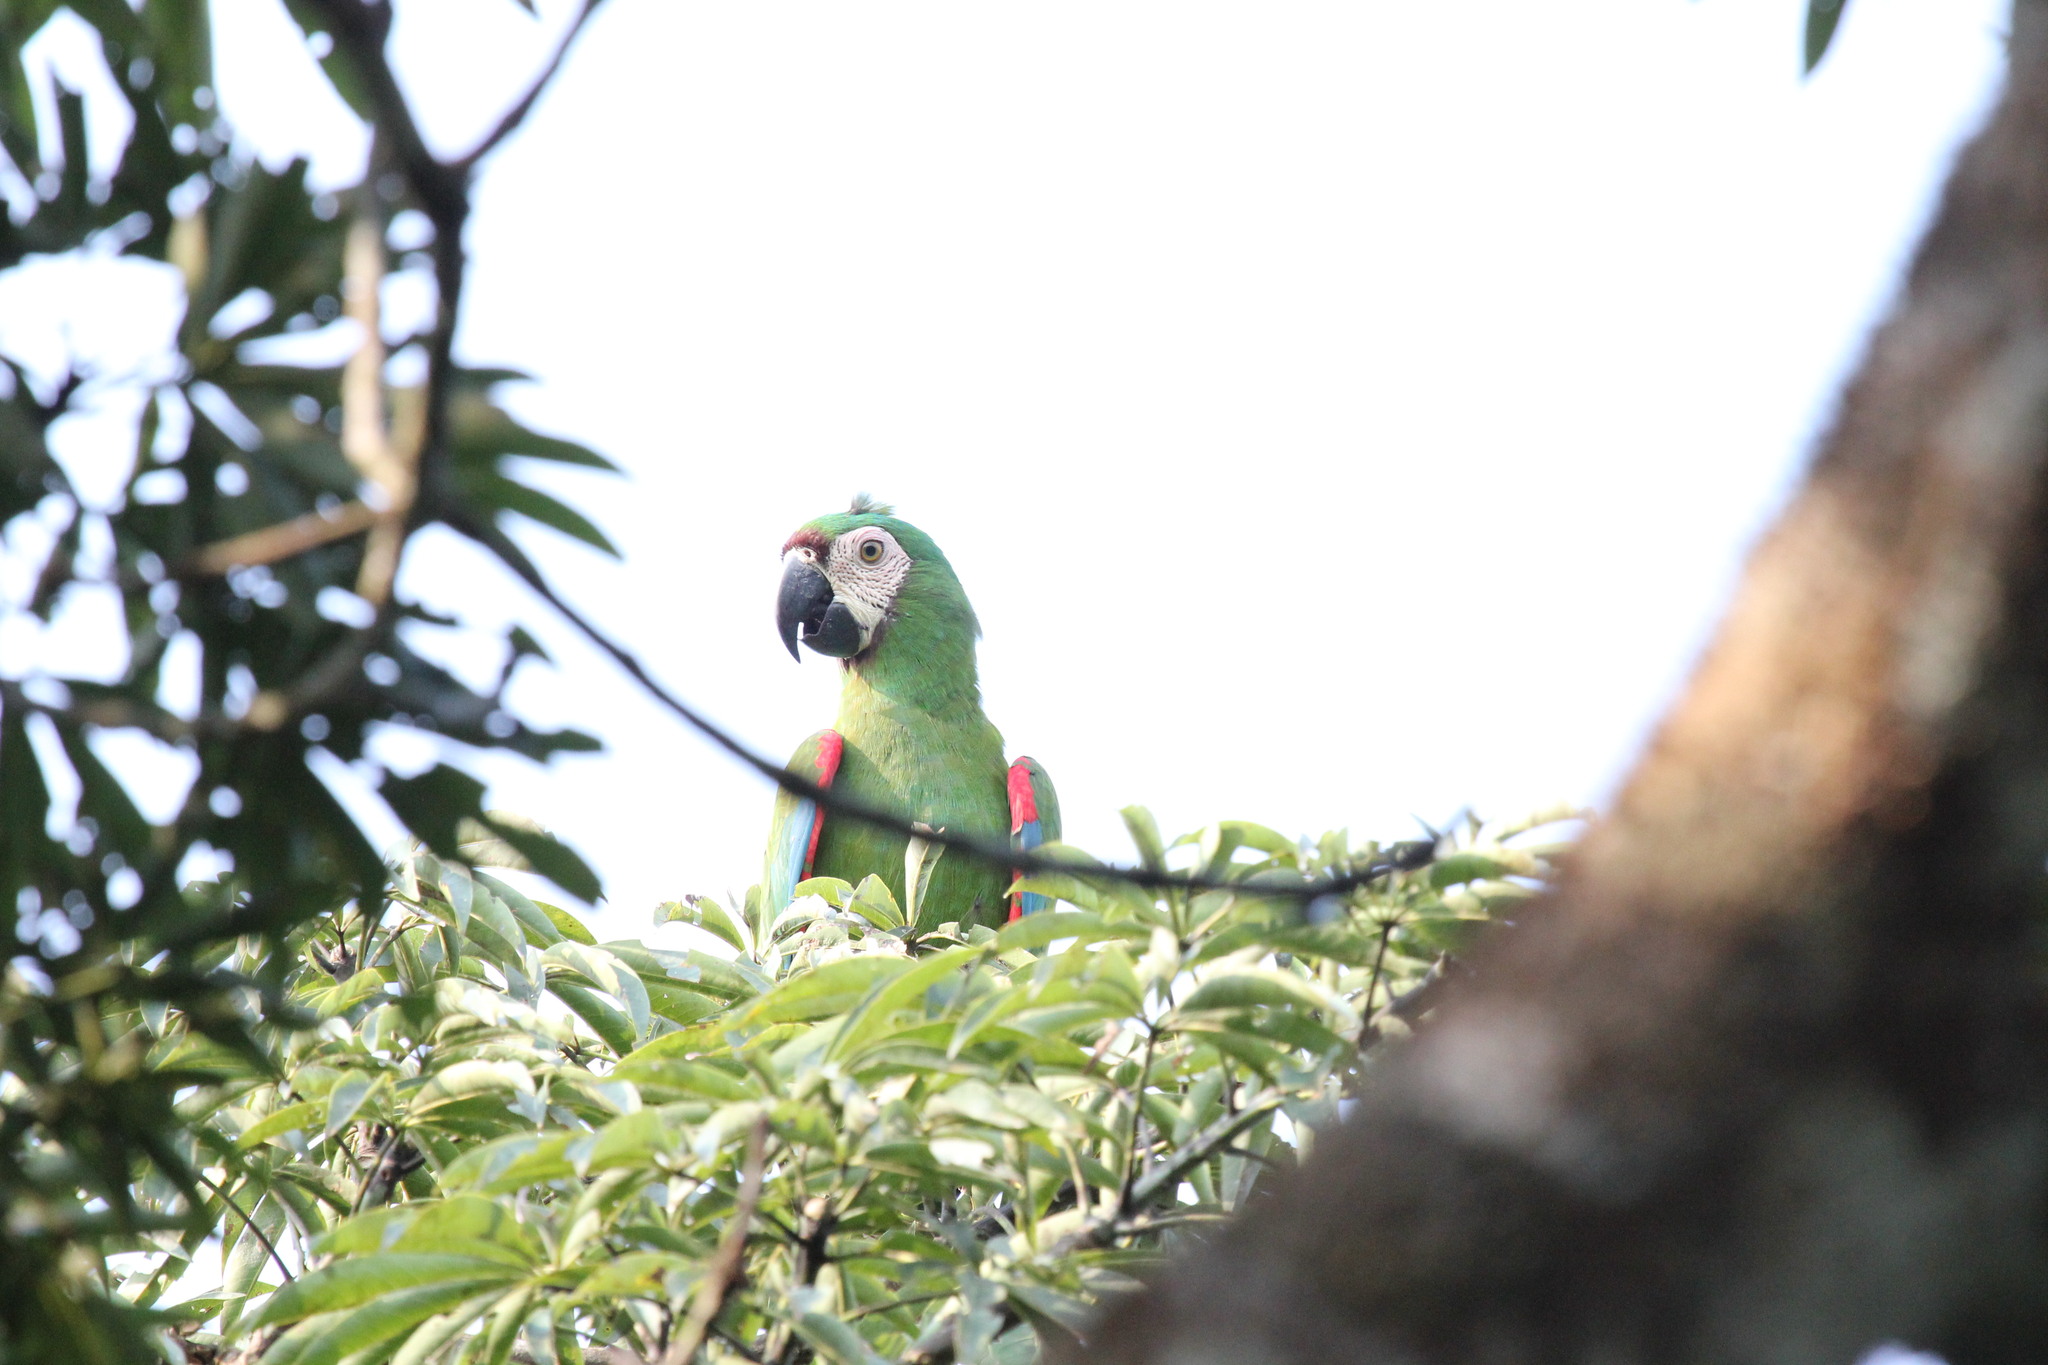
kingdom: Animalia
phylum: Chordata
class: Aves
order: Psittaciformes
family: Psittacidae
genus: Ara
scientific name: Ara severus
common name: Chestnut-fronted macaw
